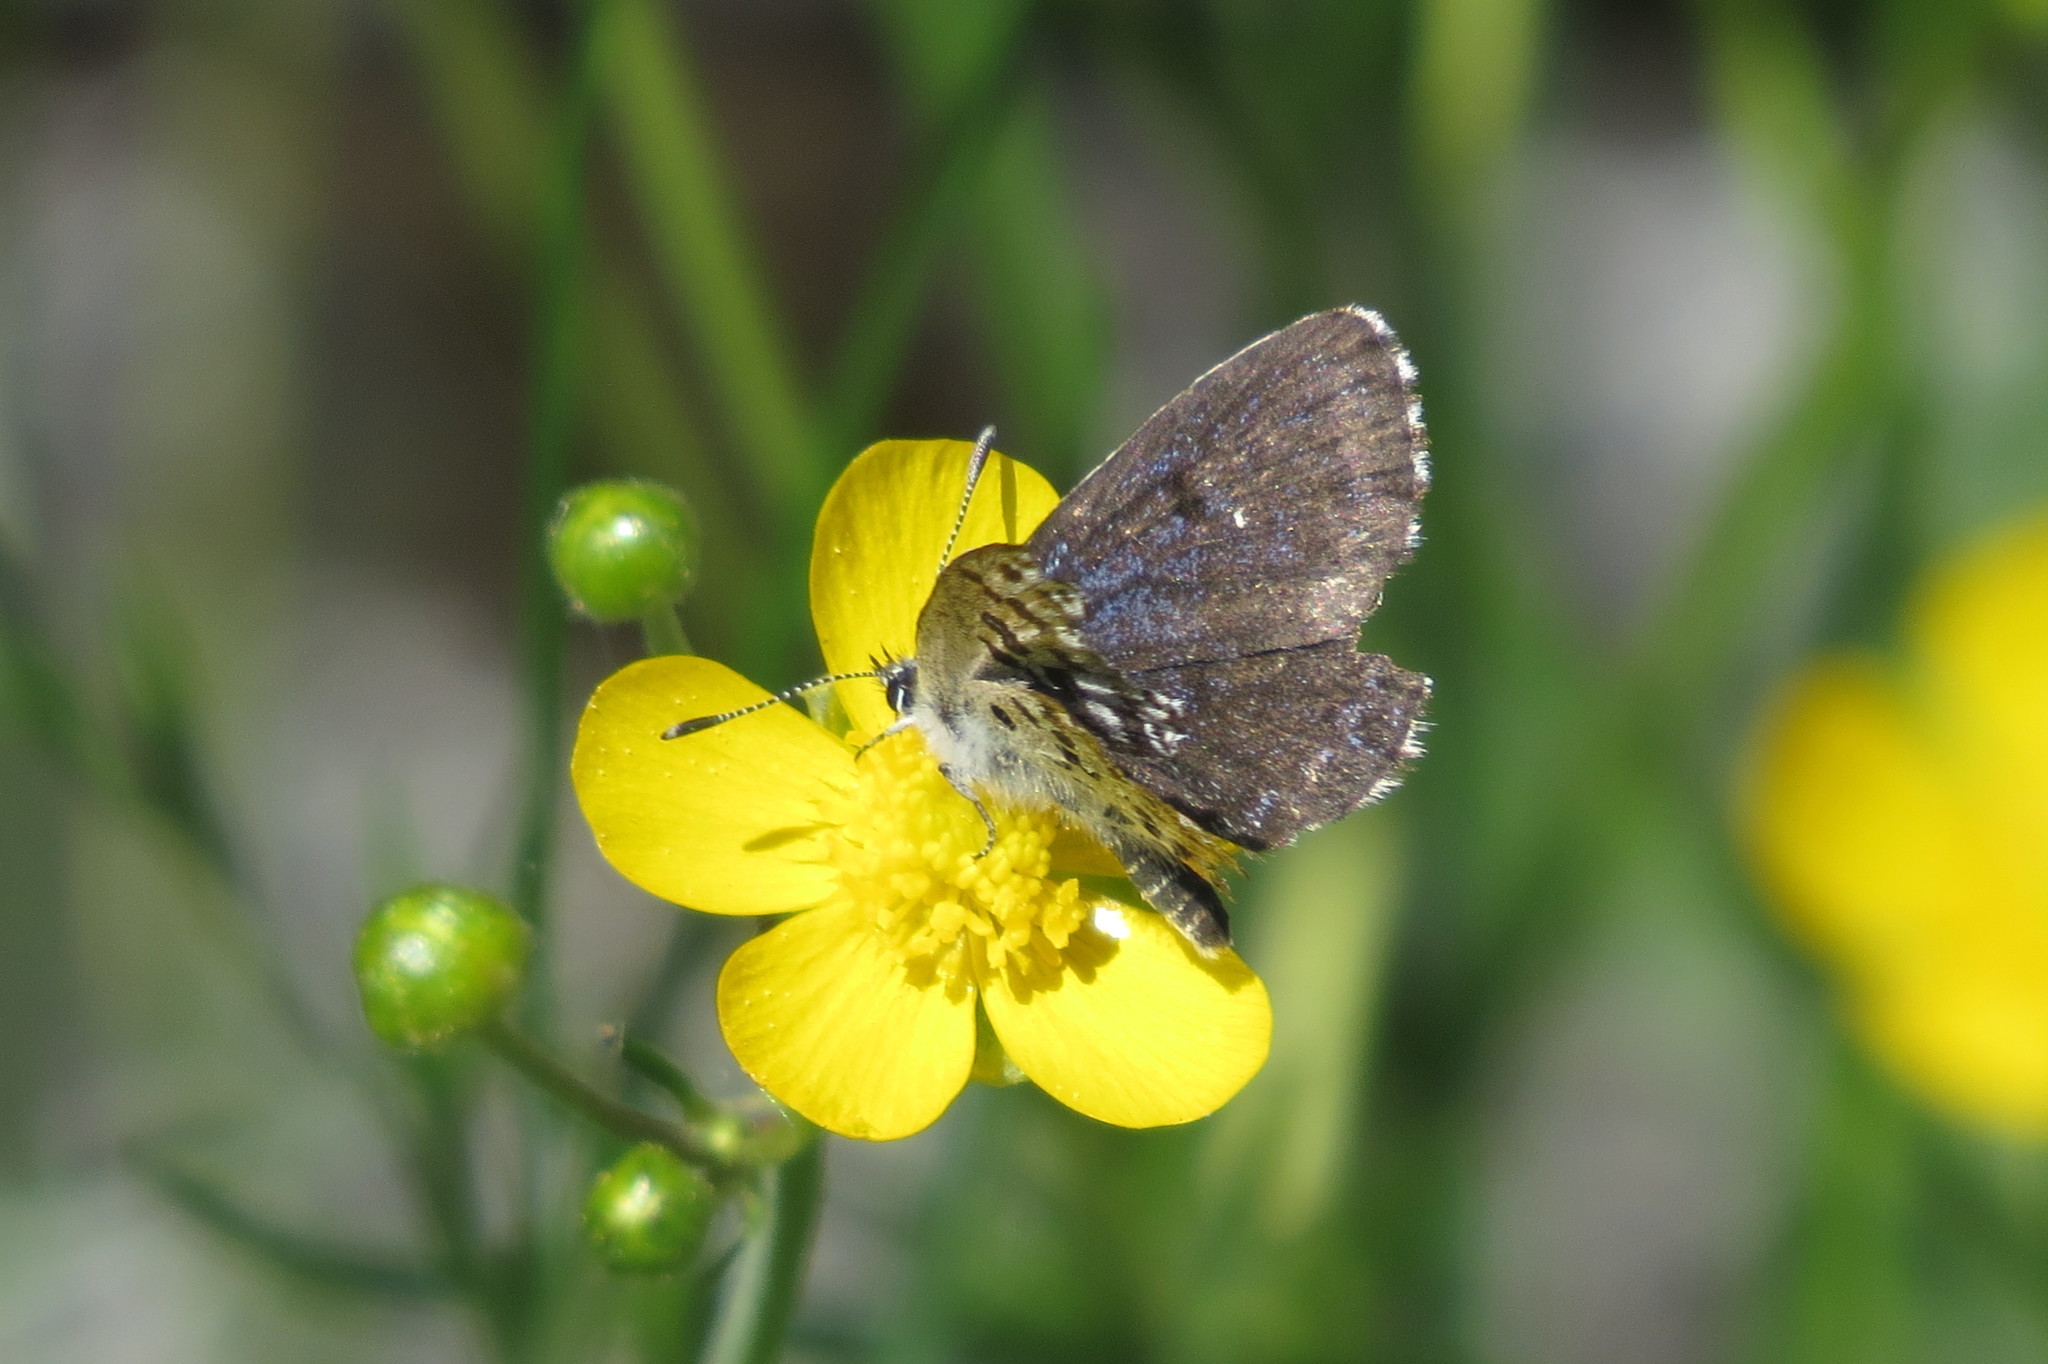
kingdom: Animalia
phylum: Arthropoda
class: Insecta
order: Lepidoptera
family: Lycaenidae
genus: Scolitantides
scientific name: Scolitantides orion
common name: Chequered blue
